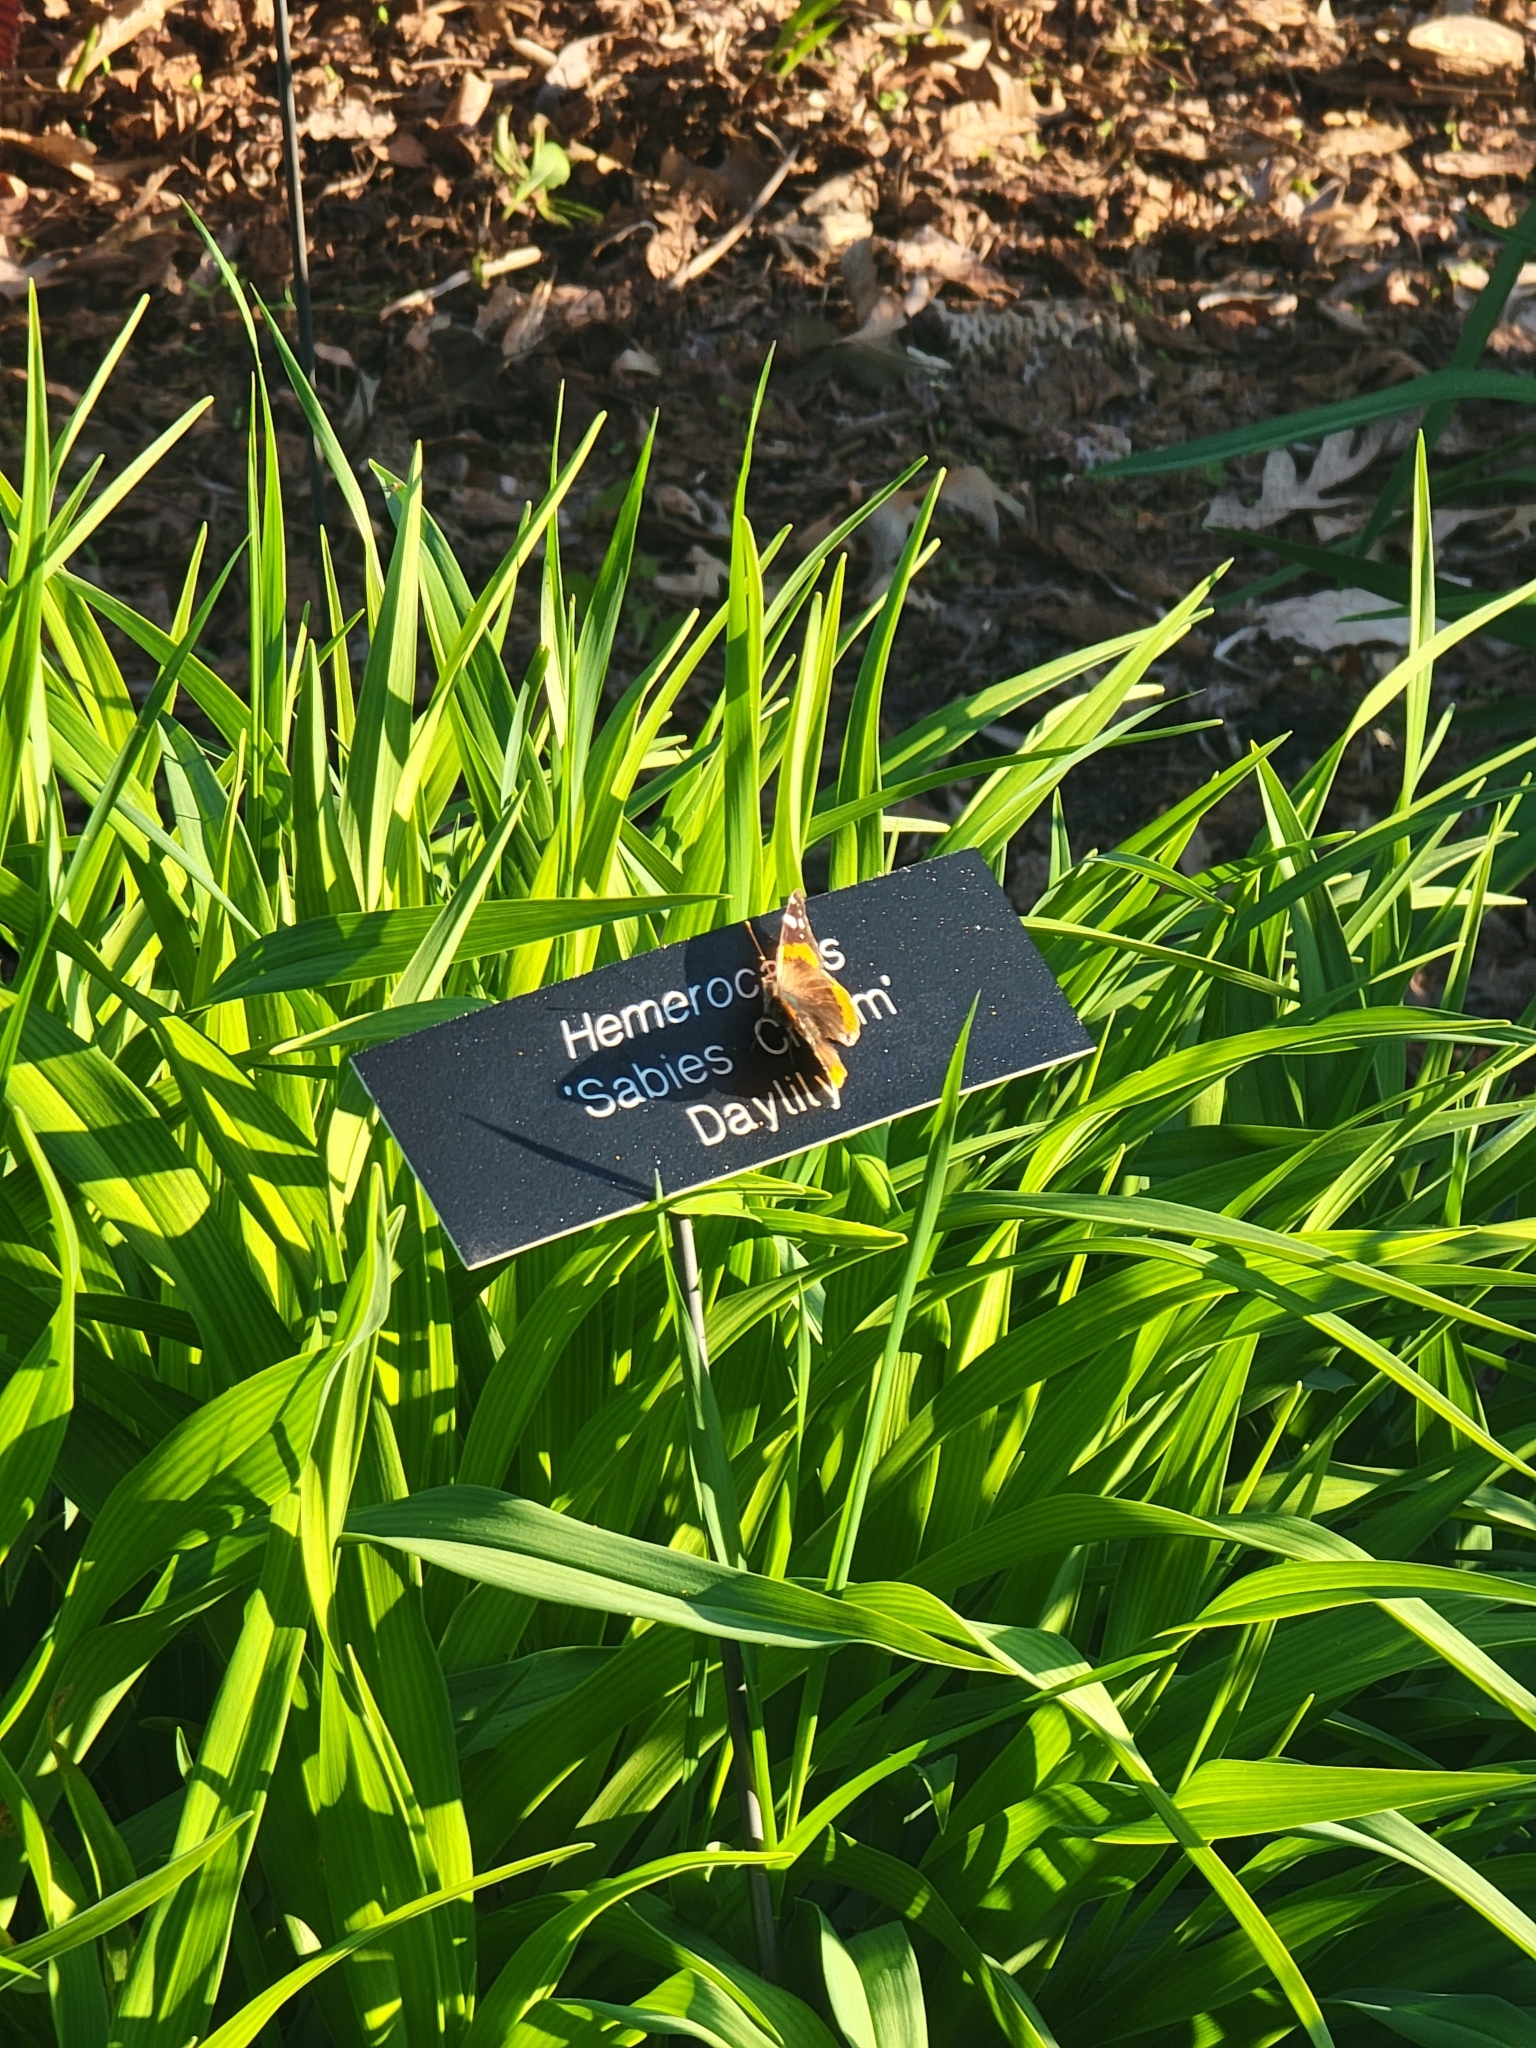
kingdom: Animalia
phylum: Arthropoda
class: Insecta
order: Lepidoptera
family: Nymphalidae
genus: Vanessa
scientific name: Vanessa atalanta
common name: Red admiral
